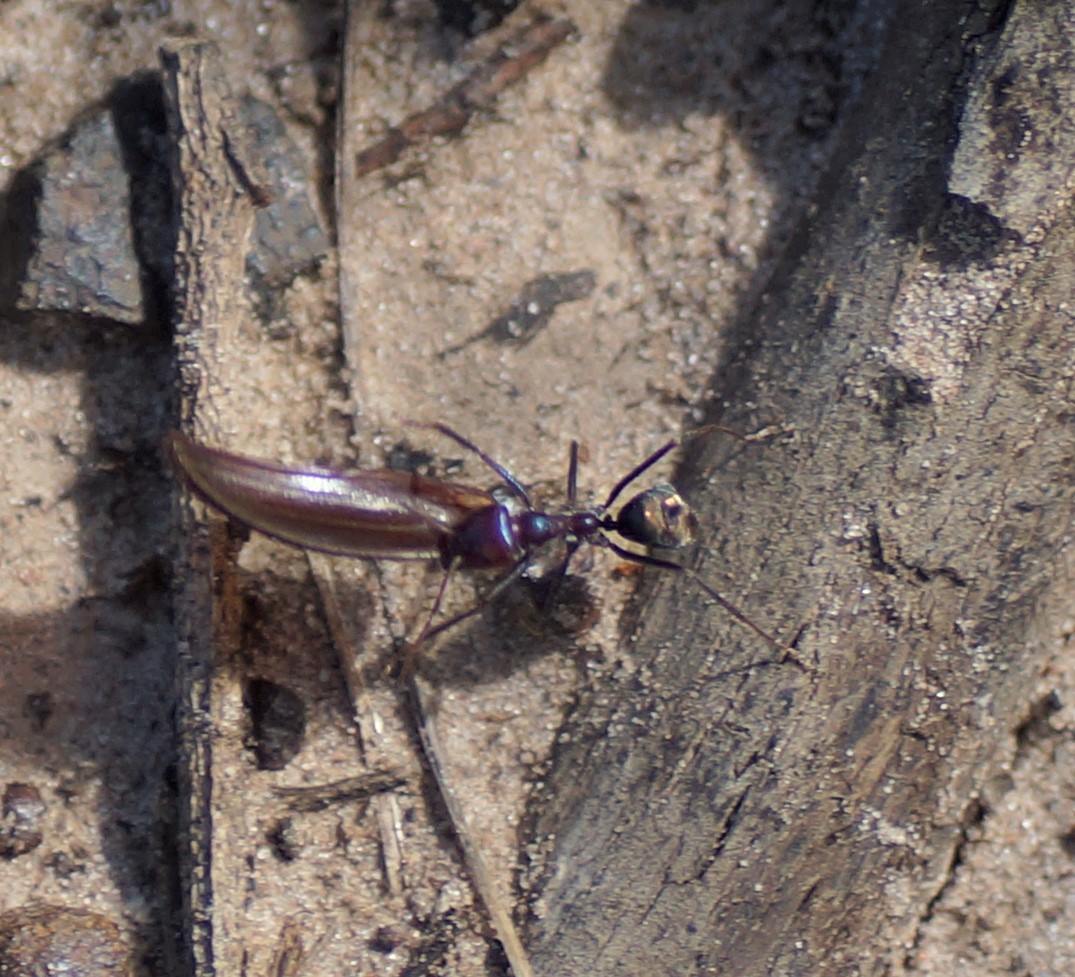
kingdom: Animalia
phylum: Arthropoda
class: Insecta
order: Hymenoptera
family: Formicidae
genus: Iridomyrmex
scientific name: Iridomyrmex purpureus
